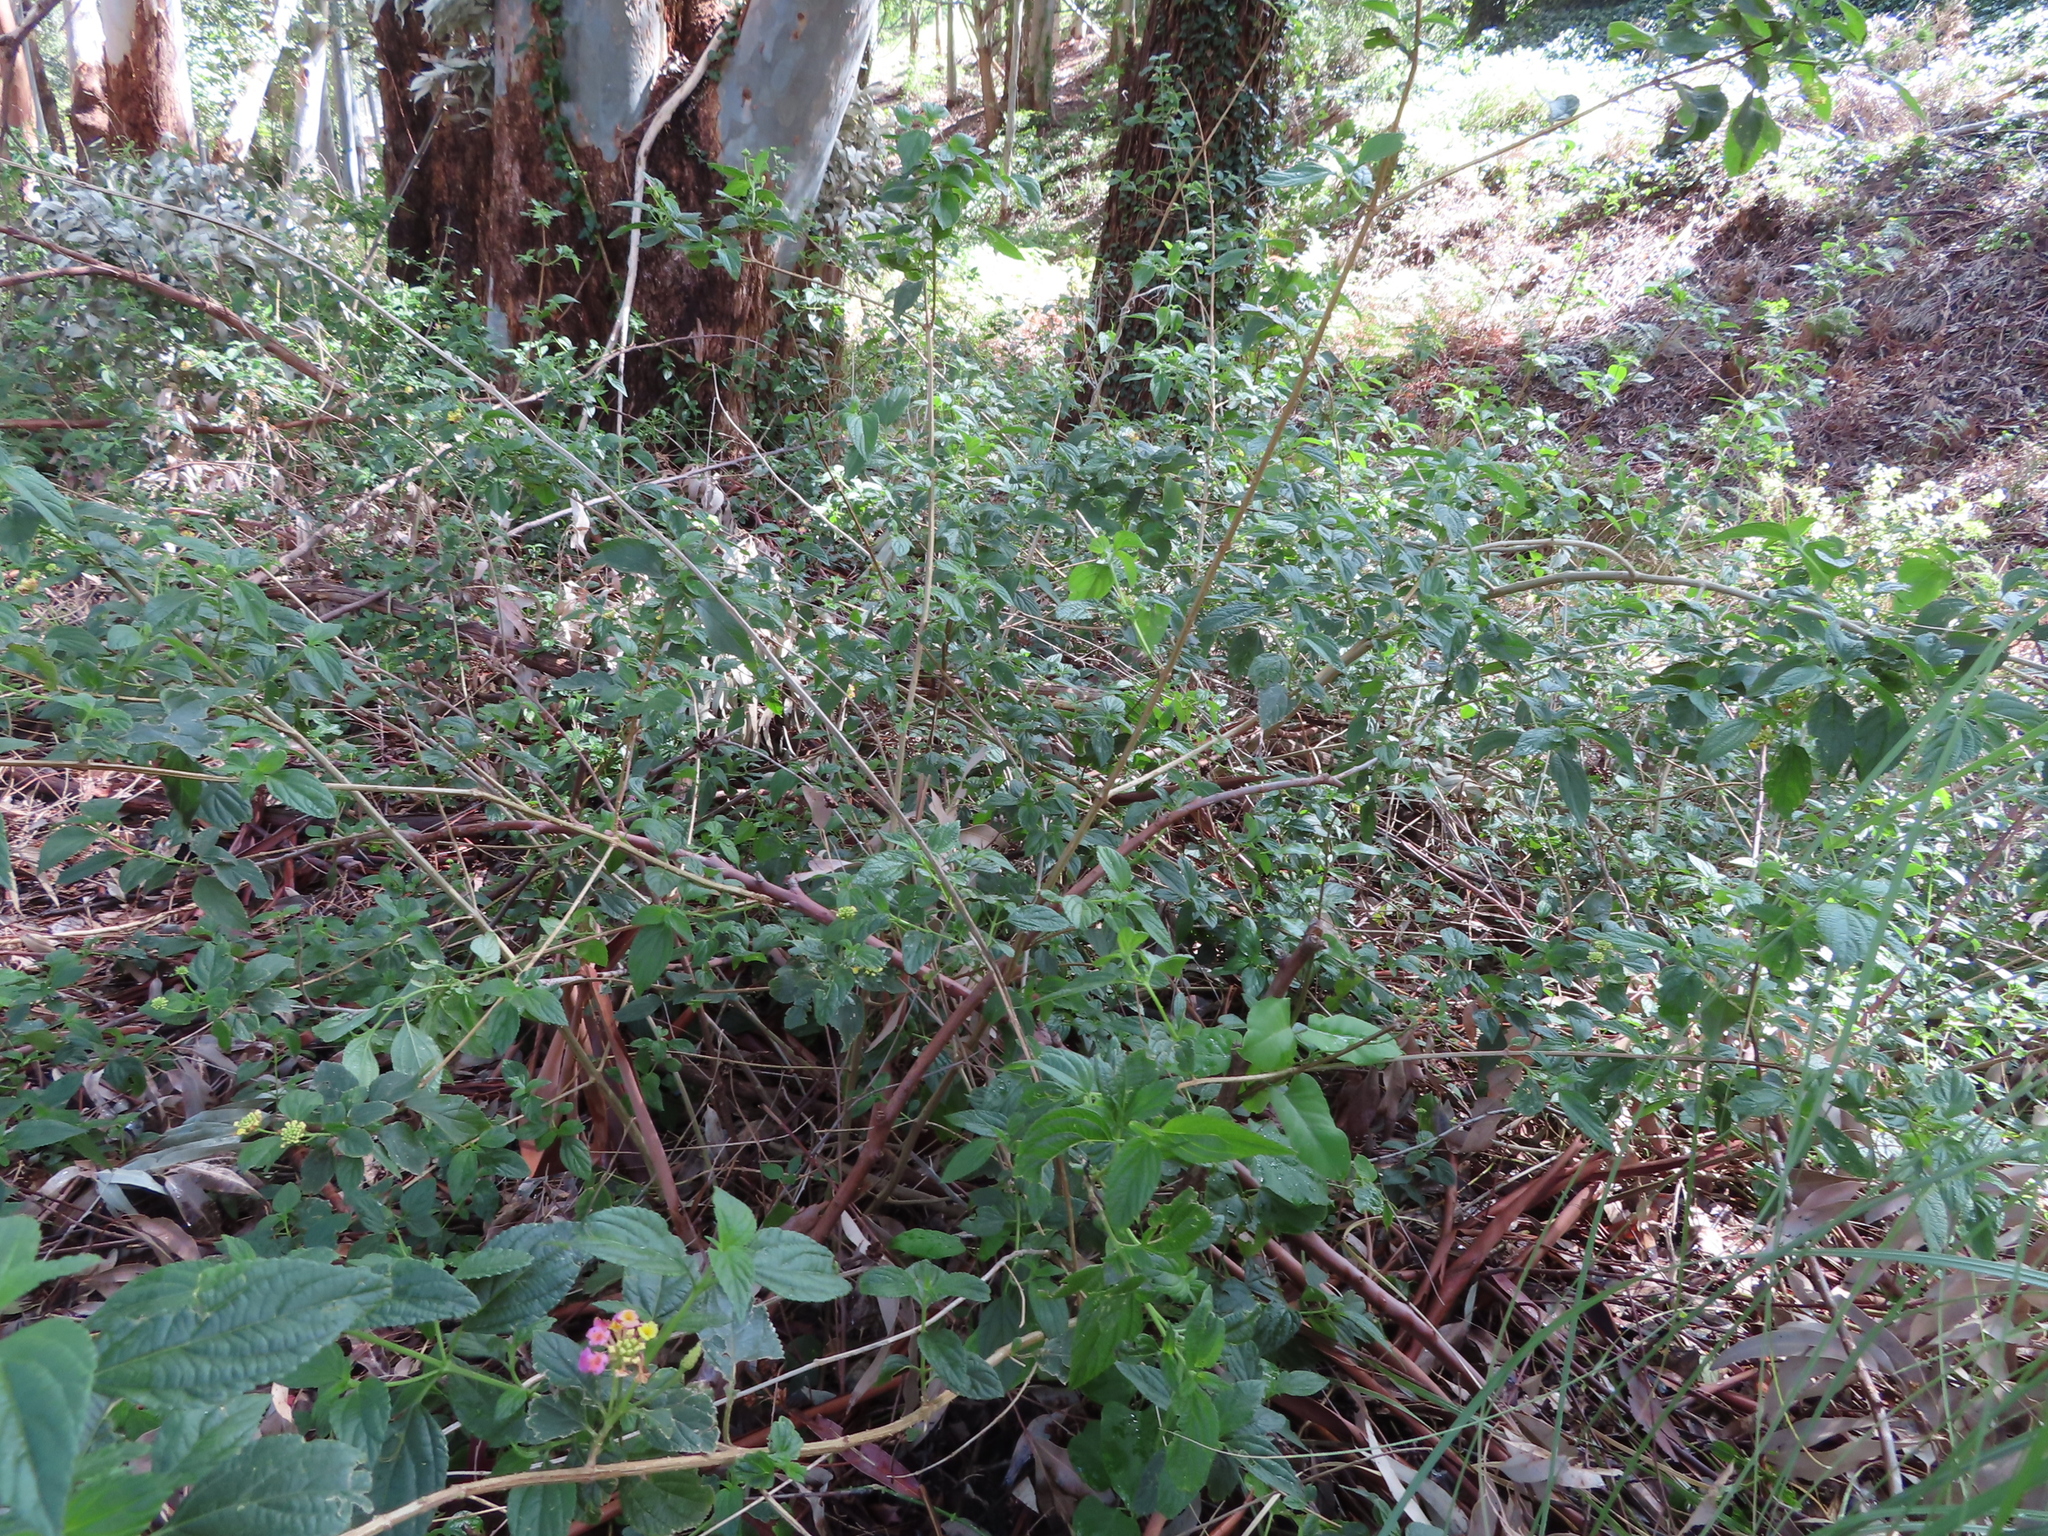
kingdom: Plantae
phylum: Tracheophyta
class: Magnoliopsida
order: Lamiales
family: Verbenaceae
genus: Lantana
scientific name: Lantana camara
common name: Lantana
